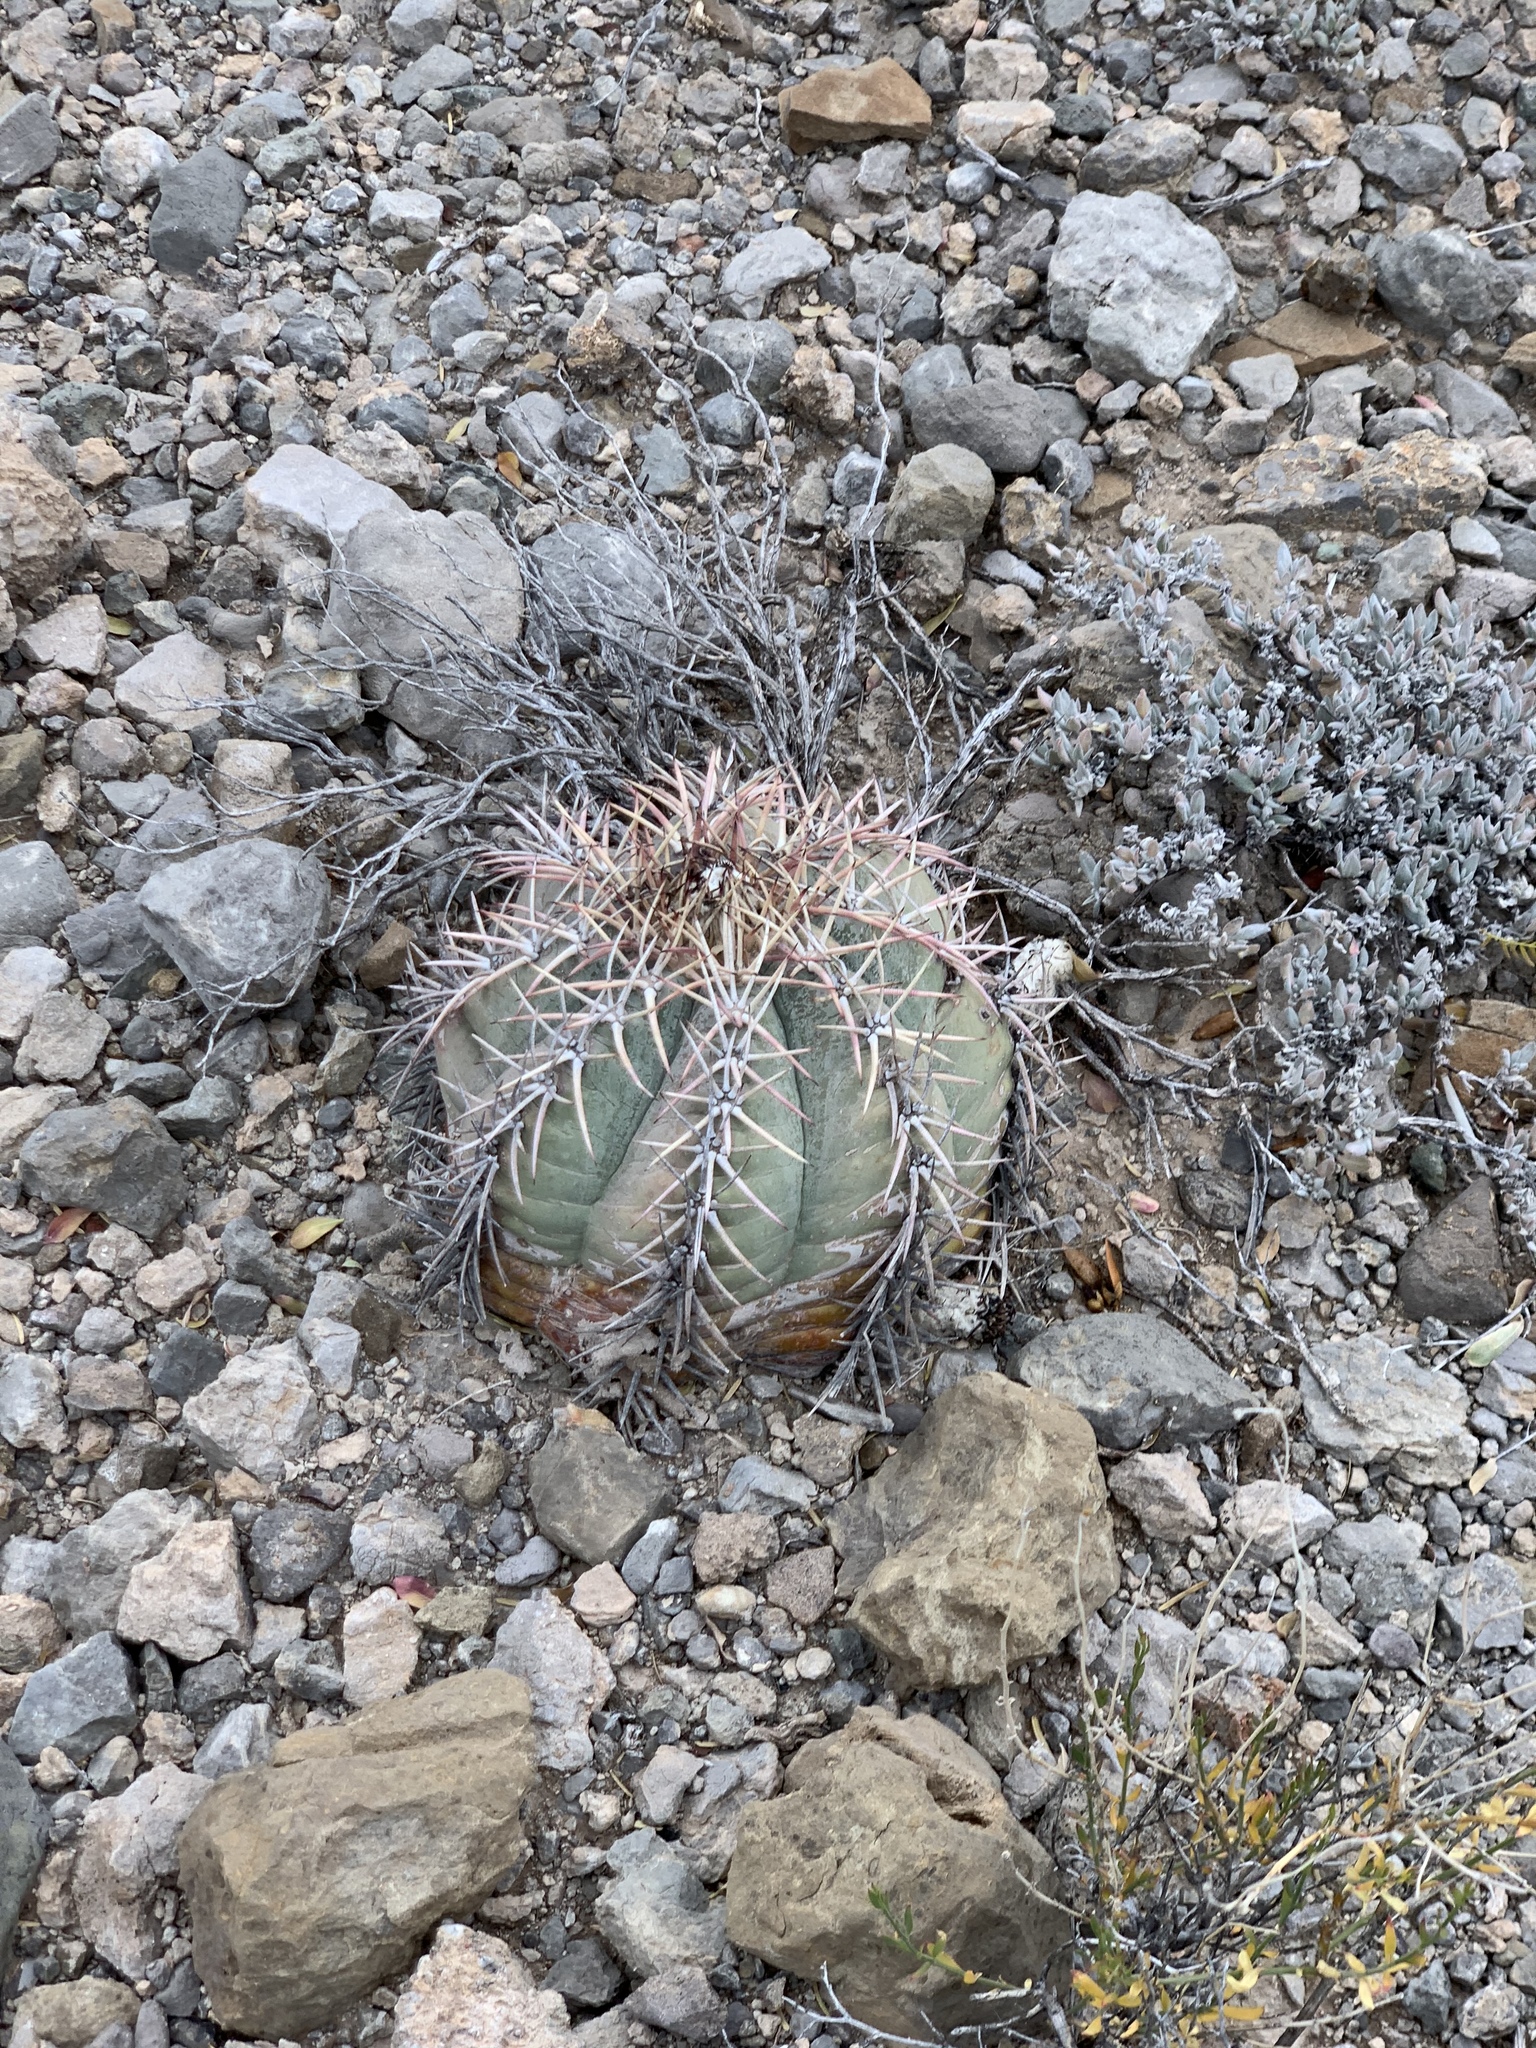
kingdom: Plantae
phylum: Tracheophyta
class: Magnoliopsida
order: Caryophyllales
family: Cactaceae
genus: Echinocactus
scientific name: Echinocactus horizonthalonius
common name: Devilshead
